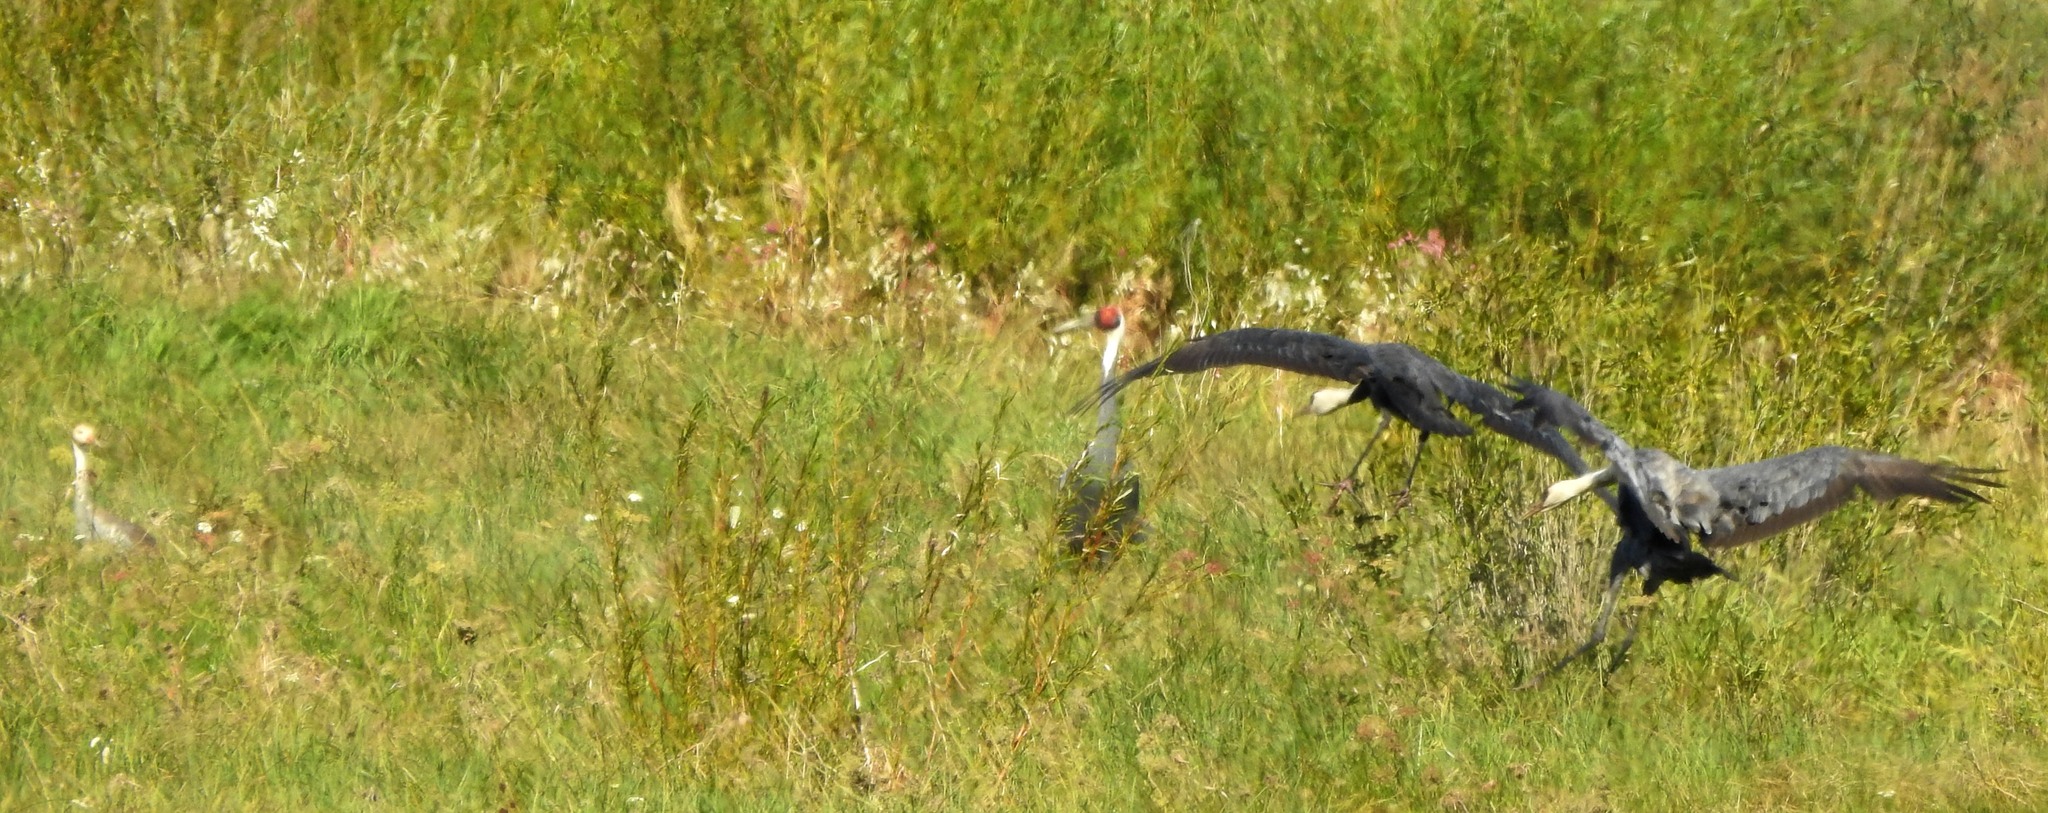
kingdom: Animalia
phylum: Chordata
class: Aves
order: Gruiformes
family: Gruidae
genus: Grus
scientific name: Grus monacha
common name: Hooded crane
